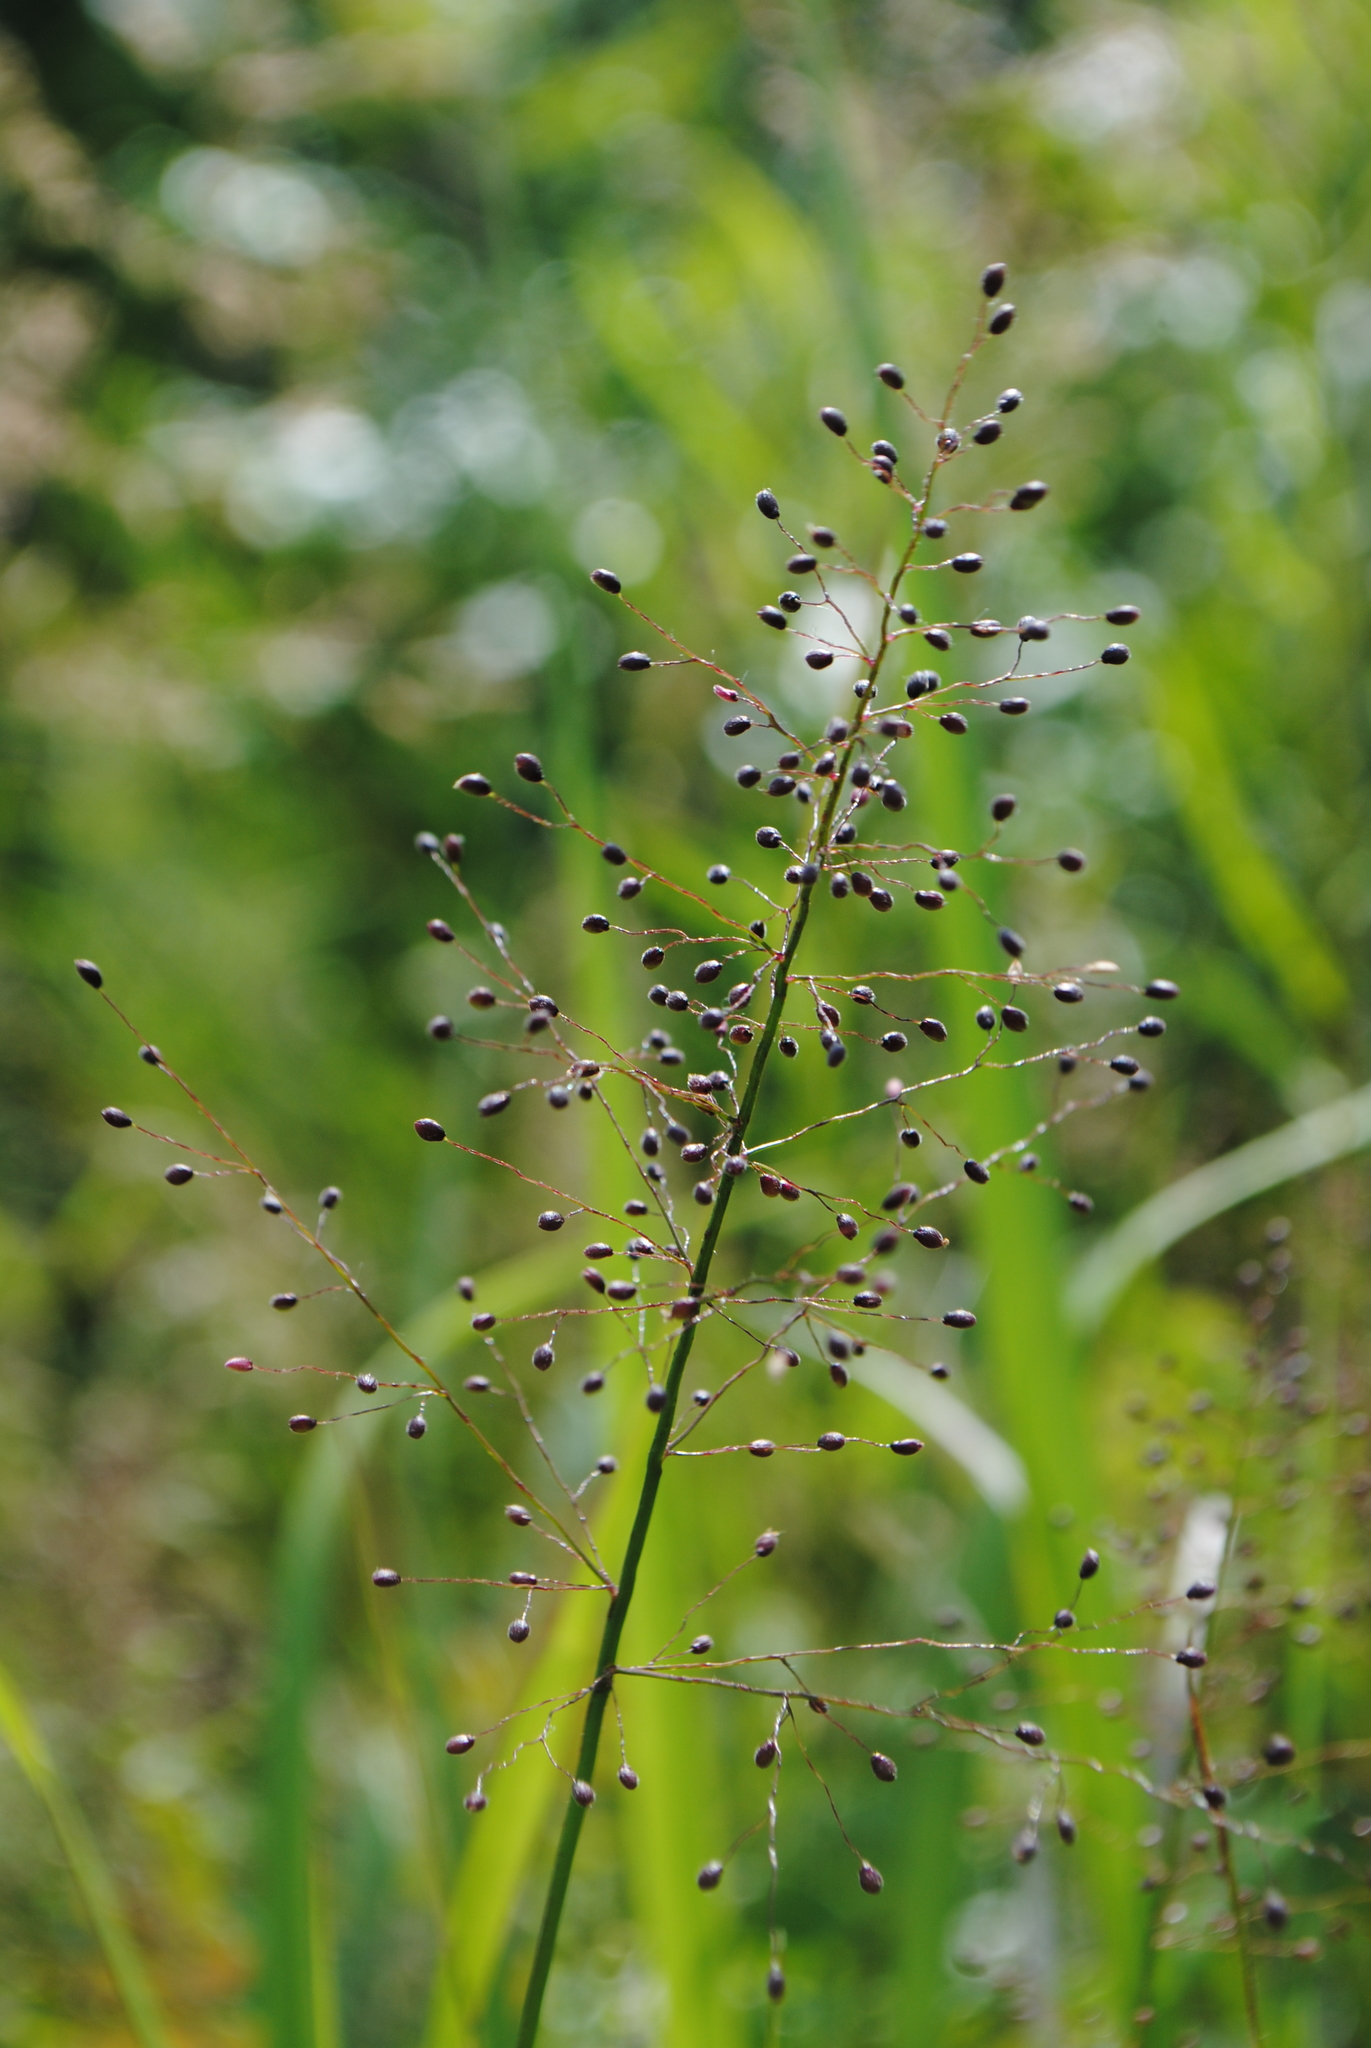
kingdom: Plantae
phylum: Tracheophyta
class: Liliopsida
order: Poales
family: Poaceae
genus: Dichanthelium
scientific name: Dichanthelium sphaerocarpon
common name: Round-fruited panicgrass
